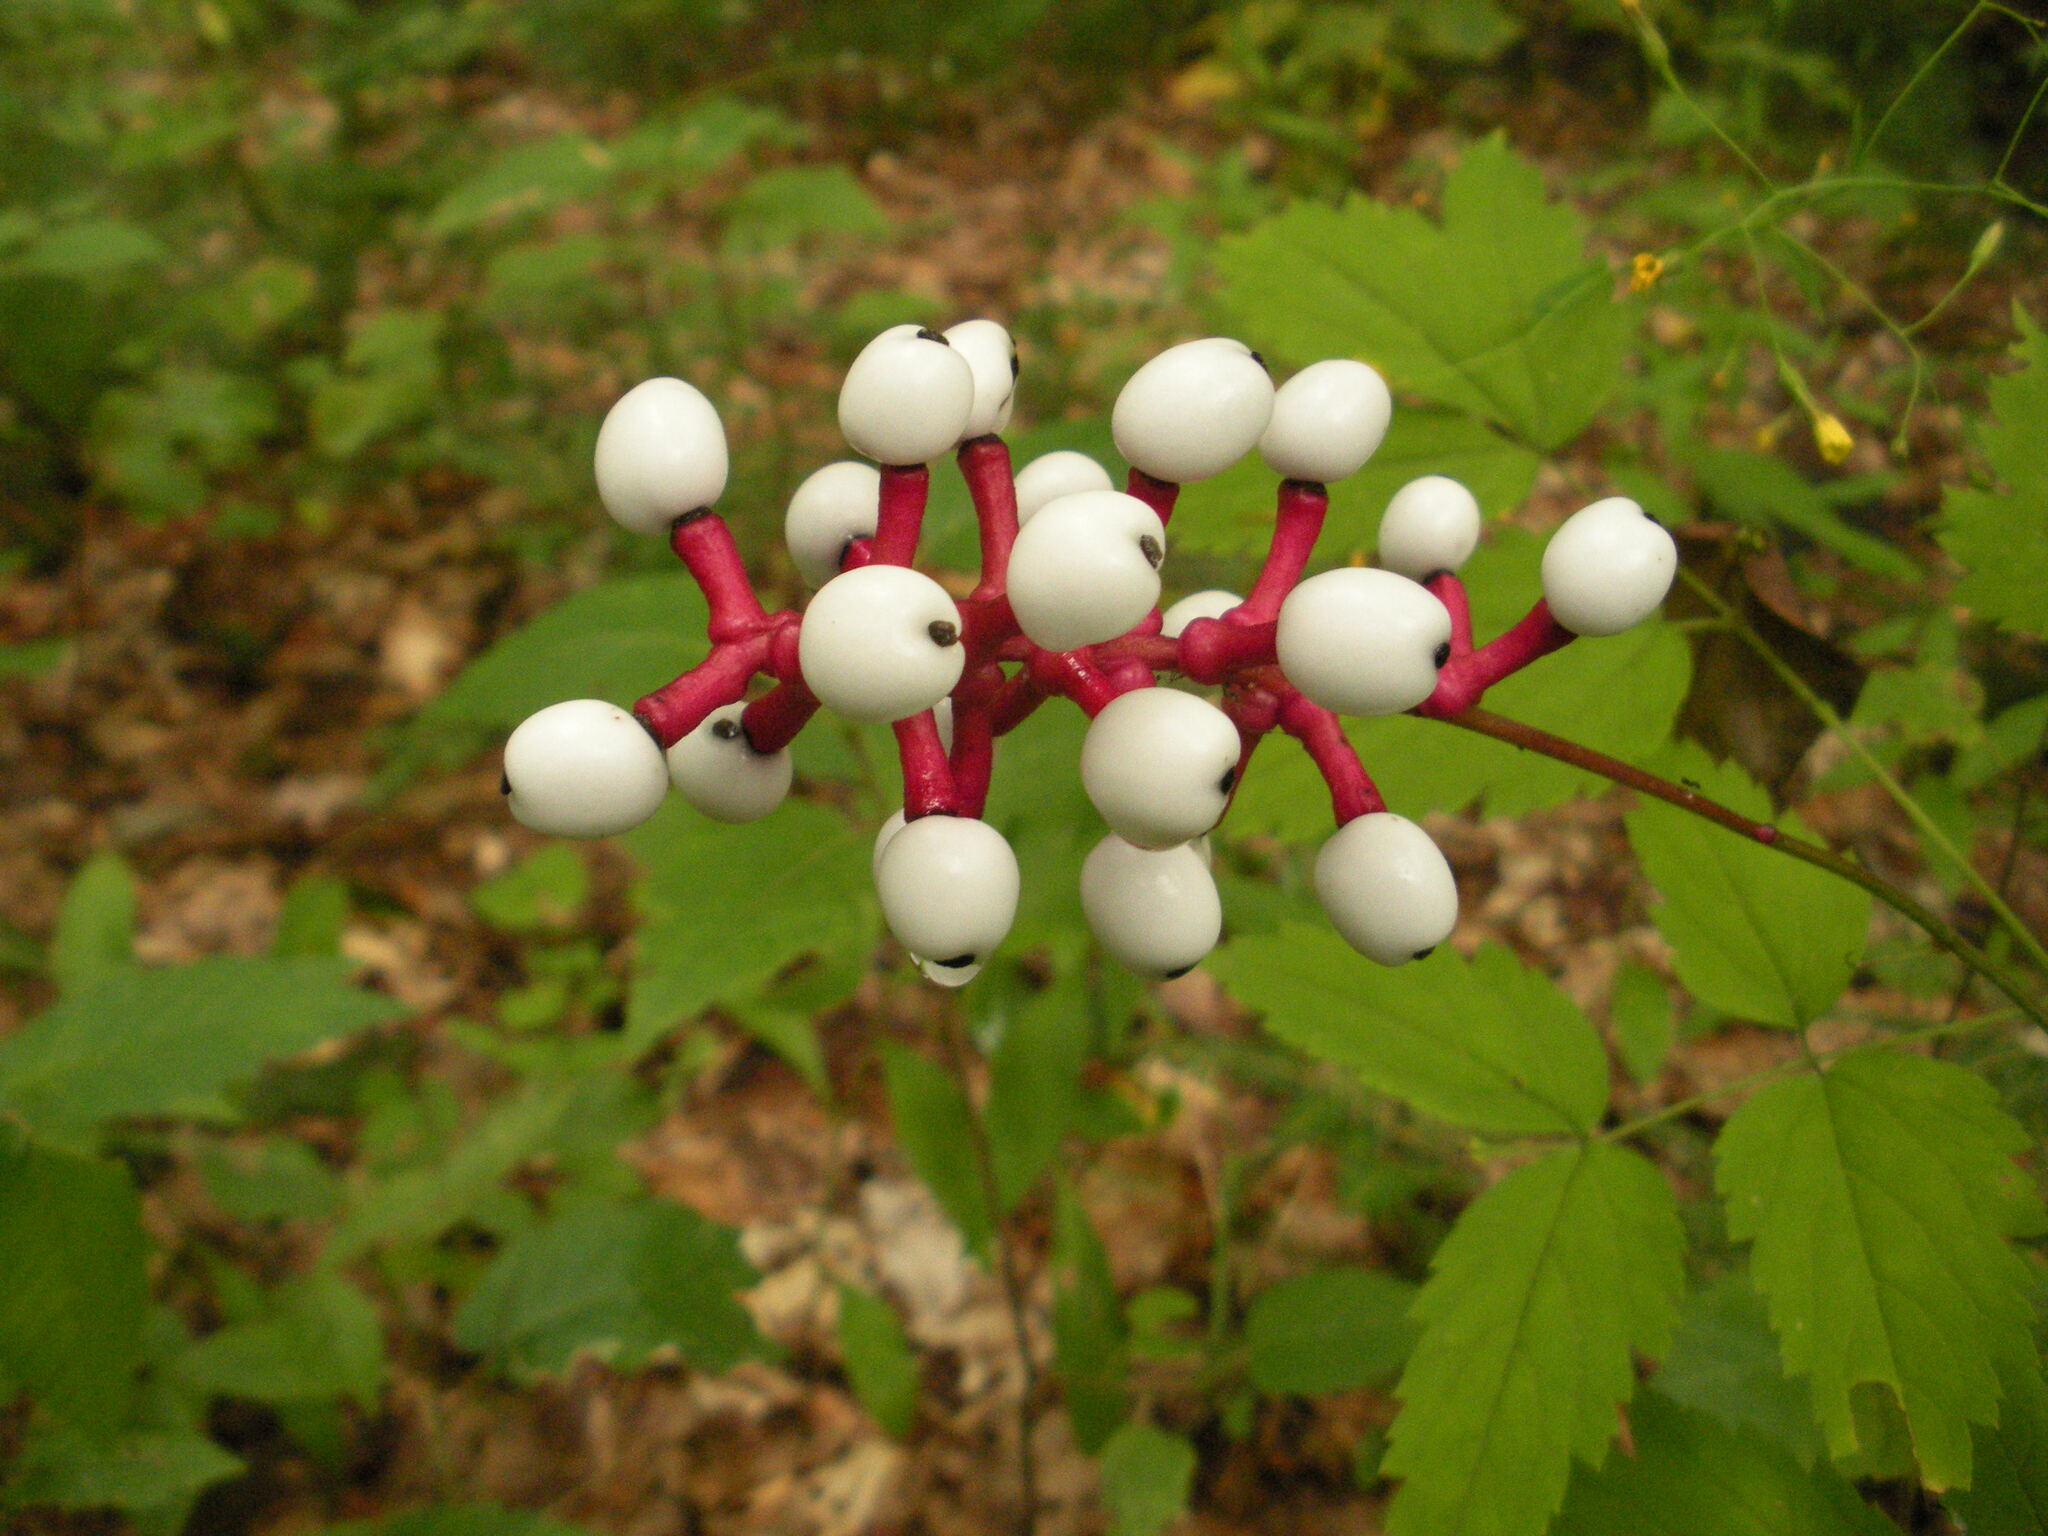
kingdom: Plantae
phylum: Tracheophyta
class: Magnoliopsida
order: Ranunculales
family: Ranunculaceae
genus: Actaea
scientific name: Actaea pachypoda
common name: Doll's-eyes
